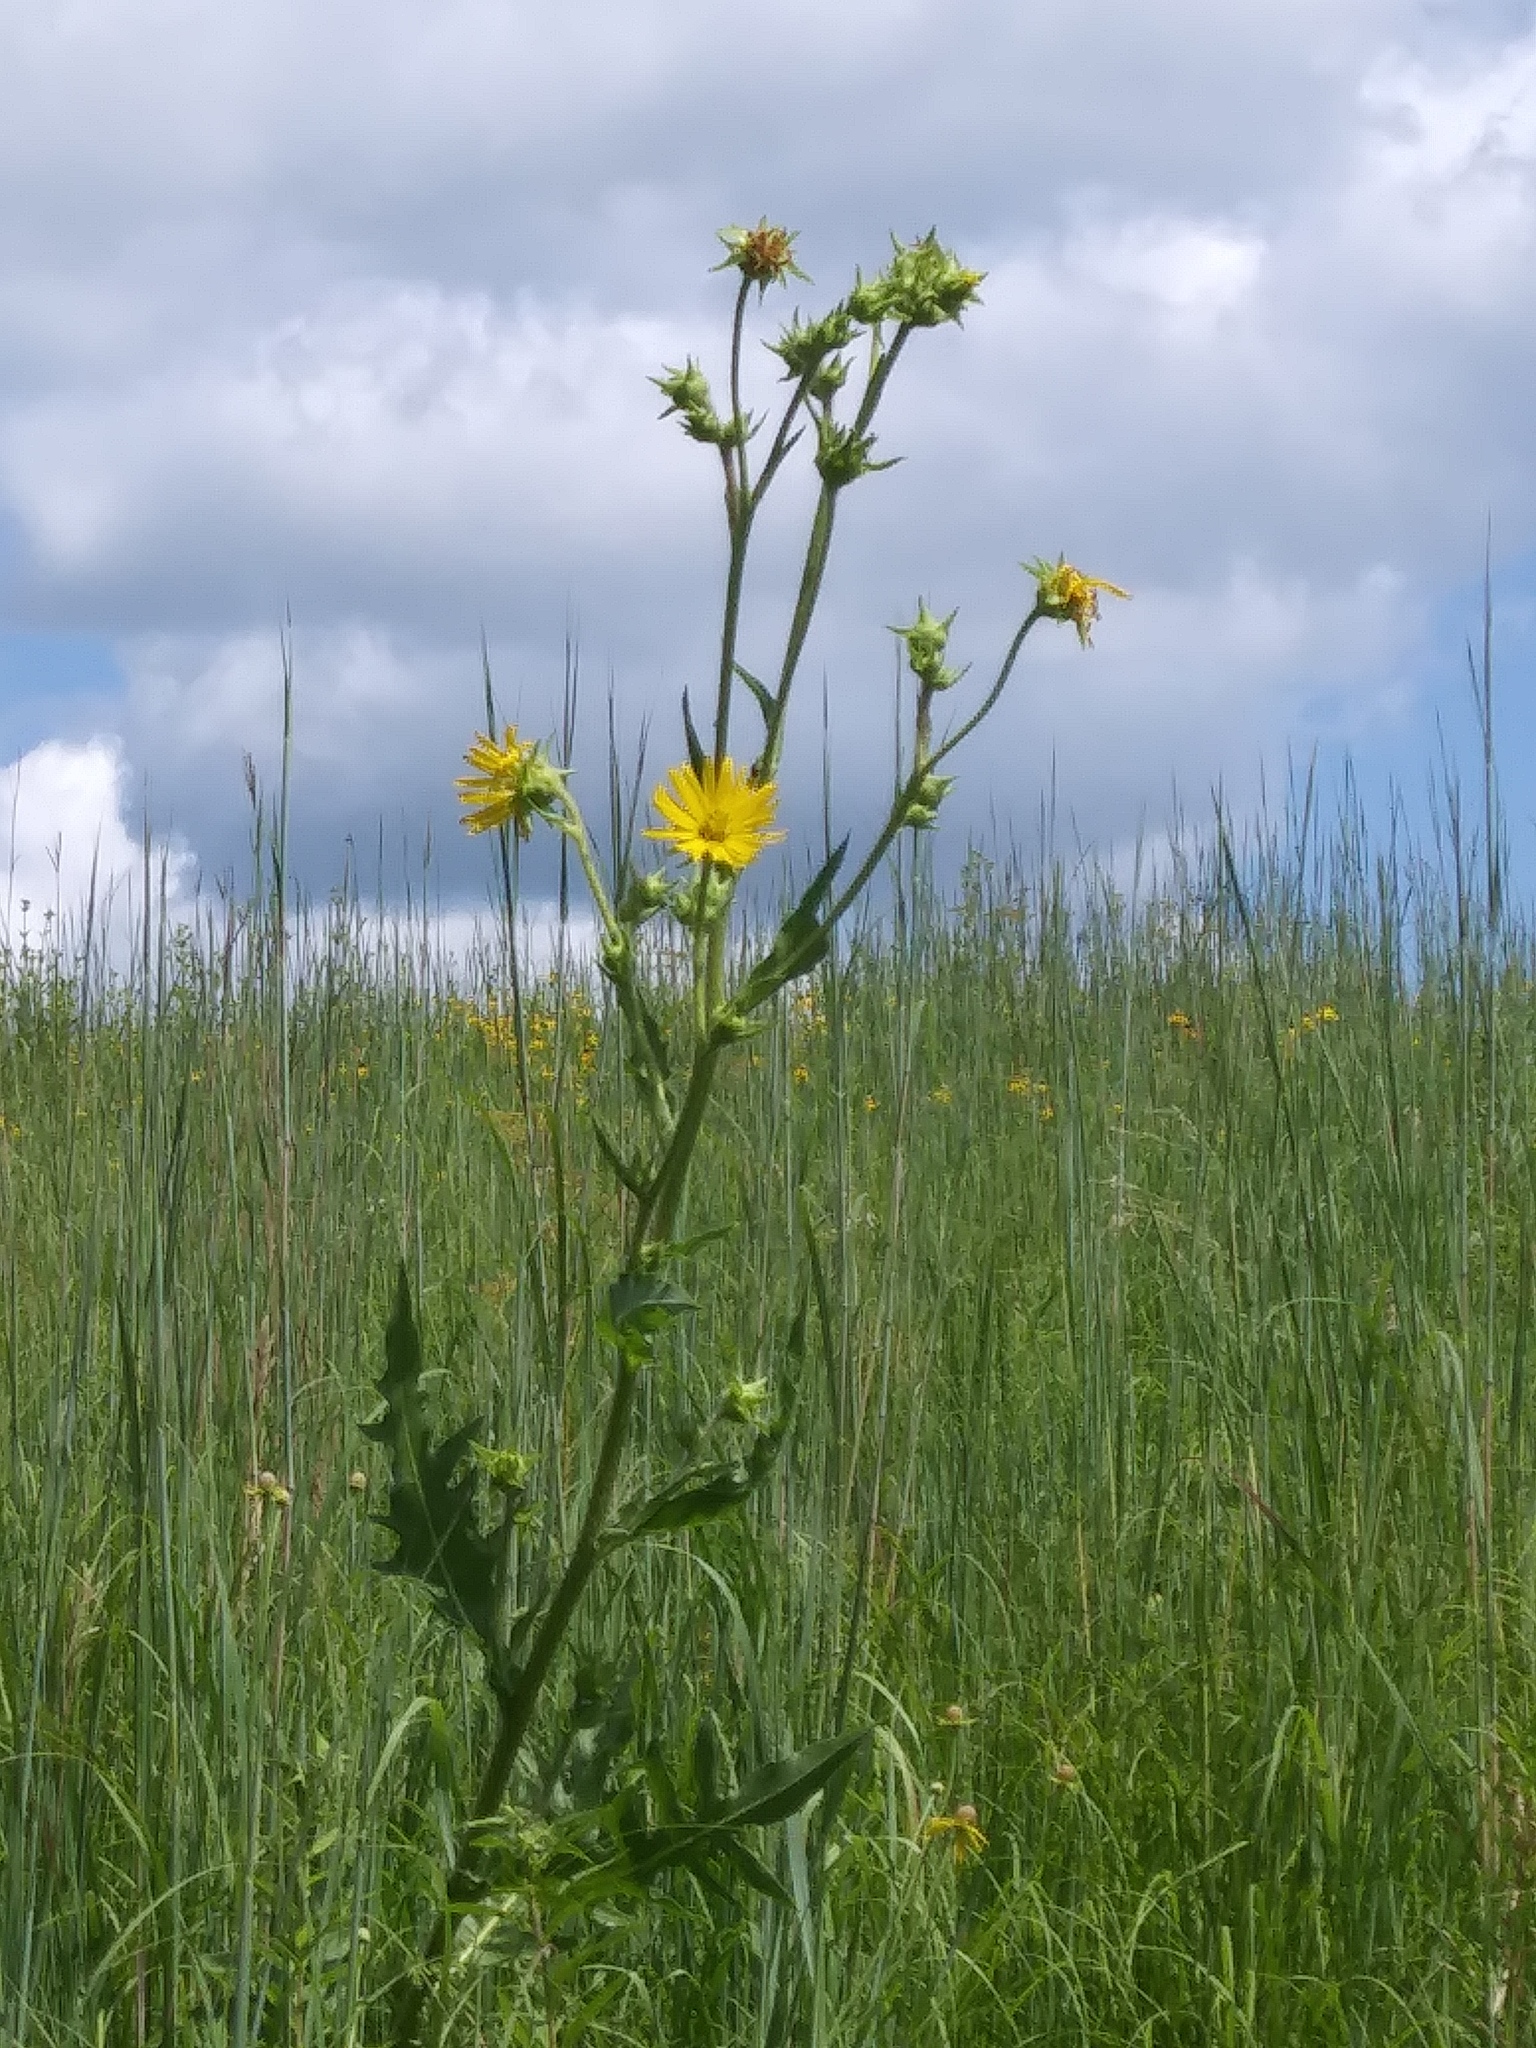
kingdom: Plantae
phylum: Tracheophyta
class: Magnoliopsida
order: Asterales
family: Asteraceae
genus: Silphium
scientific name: Silphium laciniatum
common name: Polarplant
